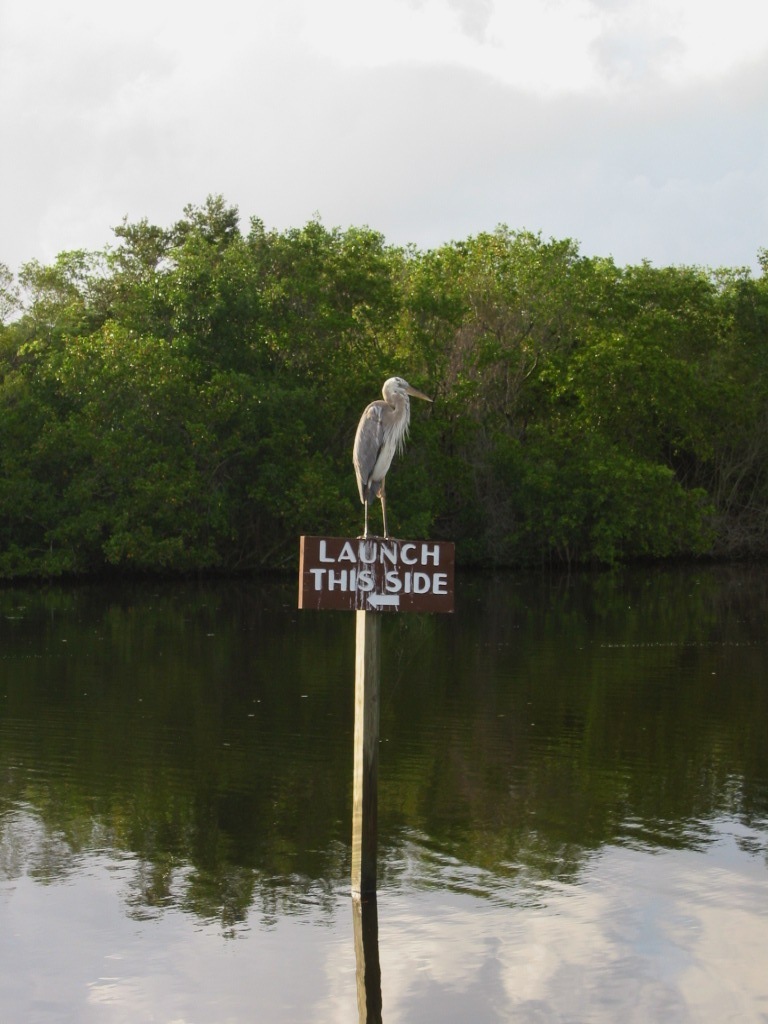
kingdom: Animalia
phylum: Chordata
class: Aves
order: Pelecaniformes
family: Ardeidae
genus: Ardea
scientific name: Ardea
